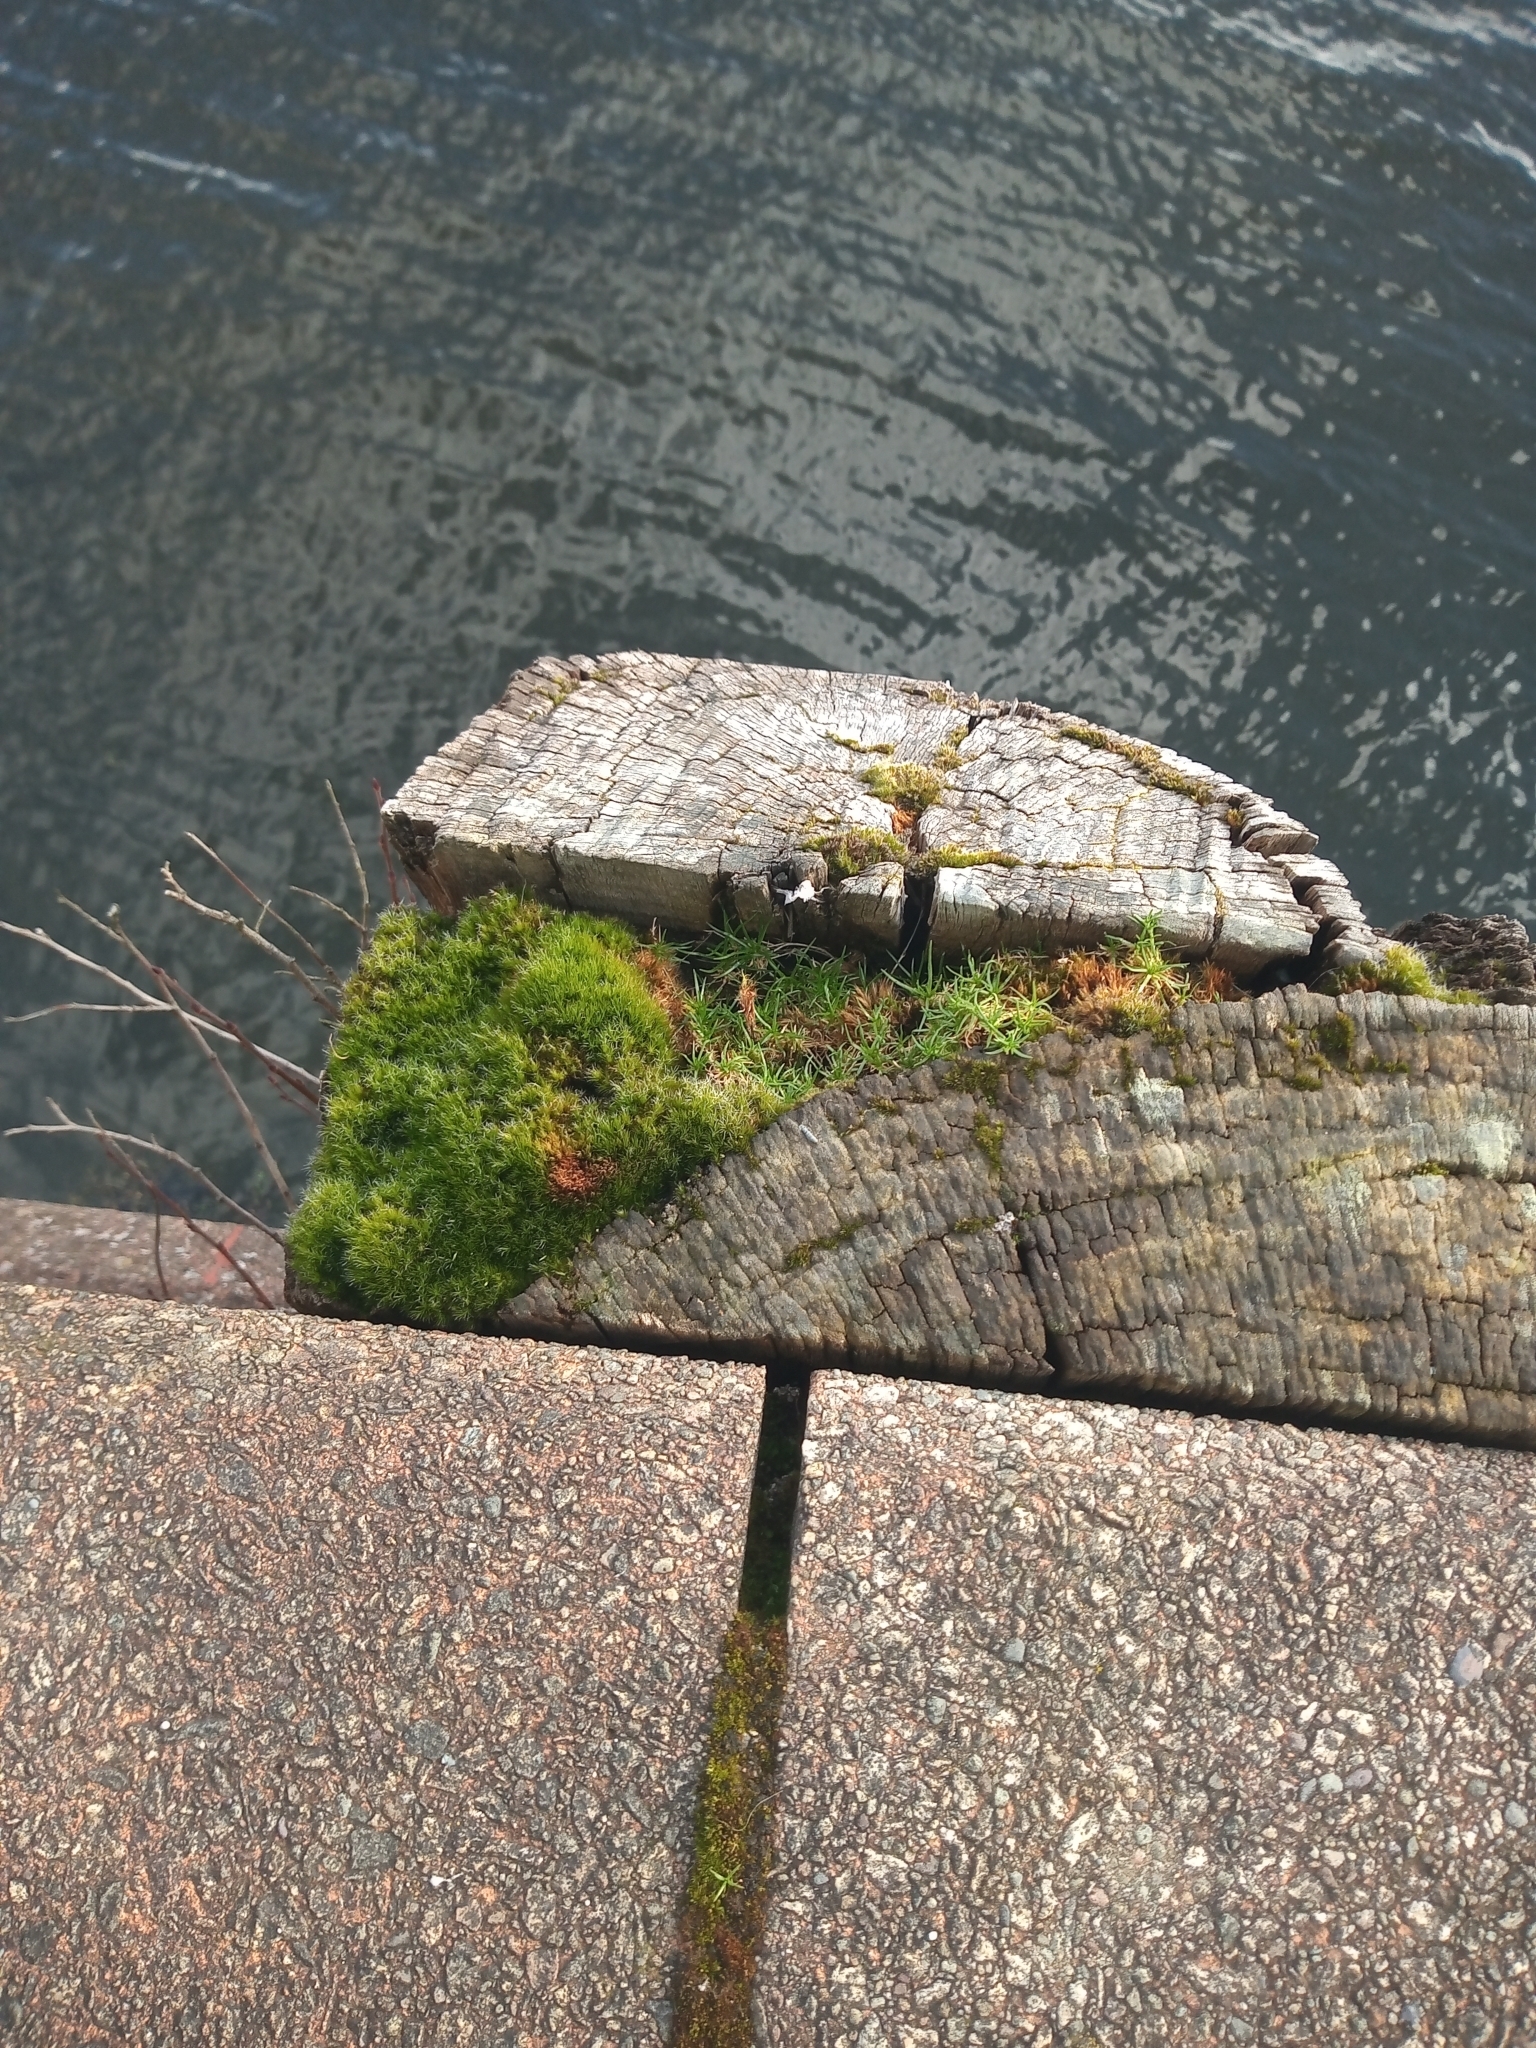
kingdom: Plantae
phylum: Bryophyta
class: Bryopsida
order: Dicranales
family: Leucobryaceae
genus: Campylopus
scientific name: Campylopus introflexus
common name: Heath star moss
